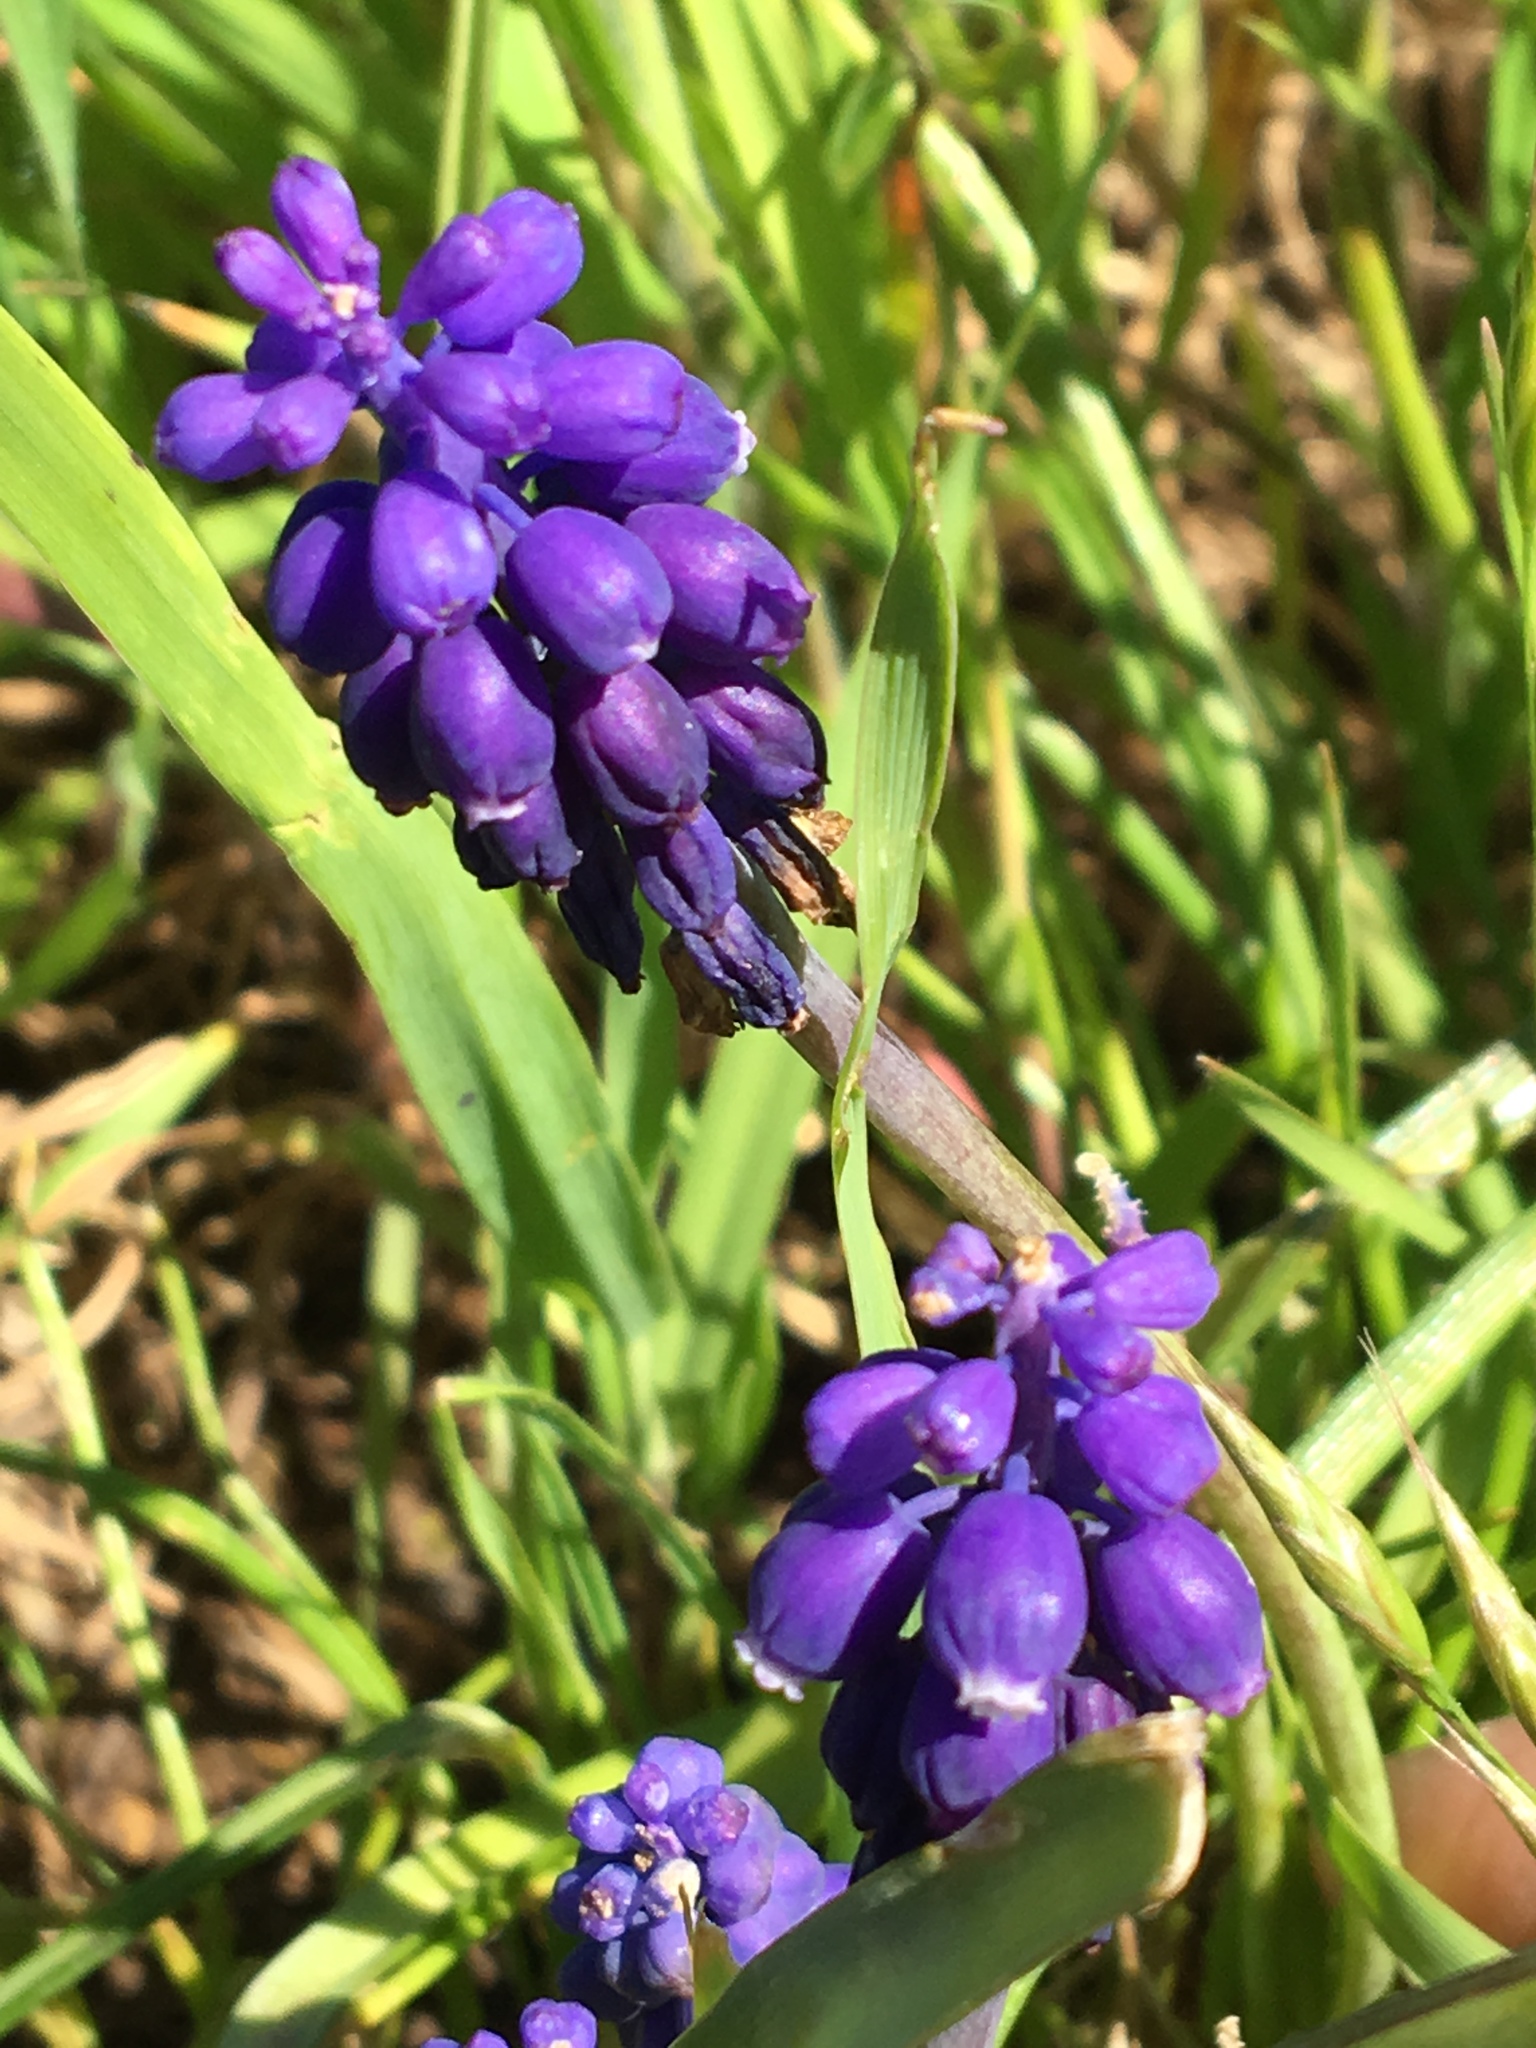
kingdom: Plantae
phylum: Tracheophyta
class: Liliopsida
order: Asparagales
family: Asparagaceae
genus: Muscari
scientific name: Muscari neglectum
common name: Grape-hyacinth
